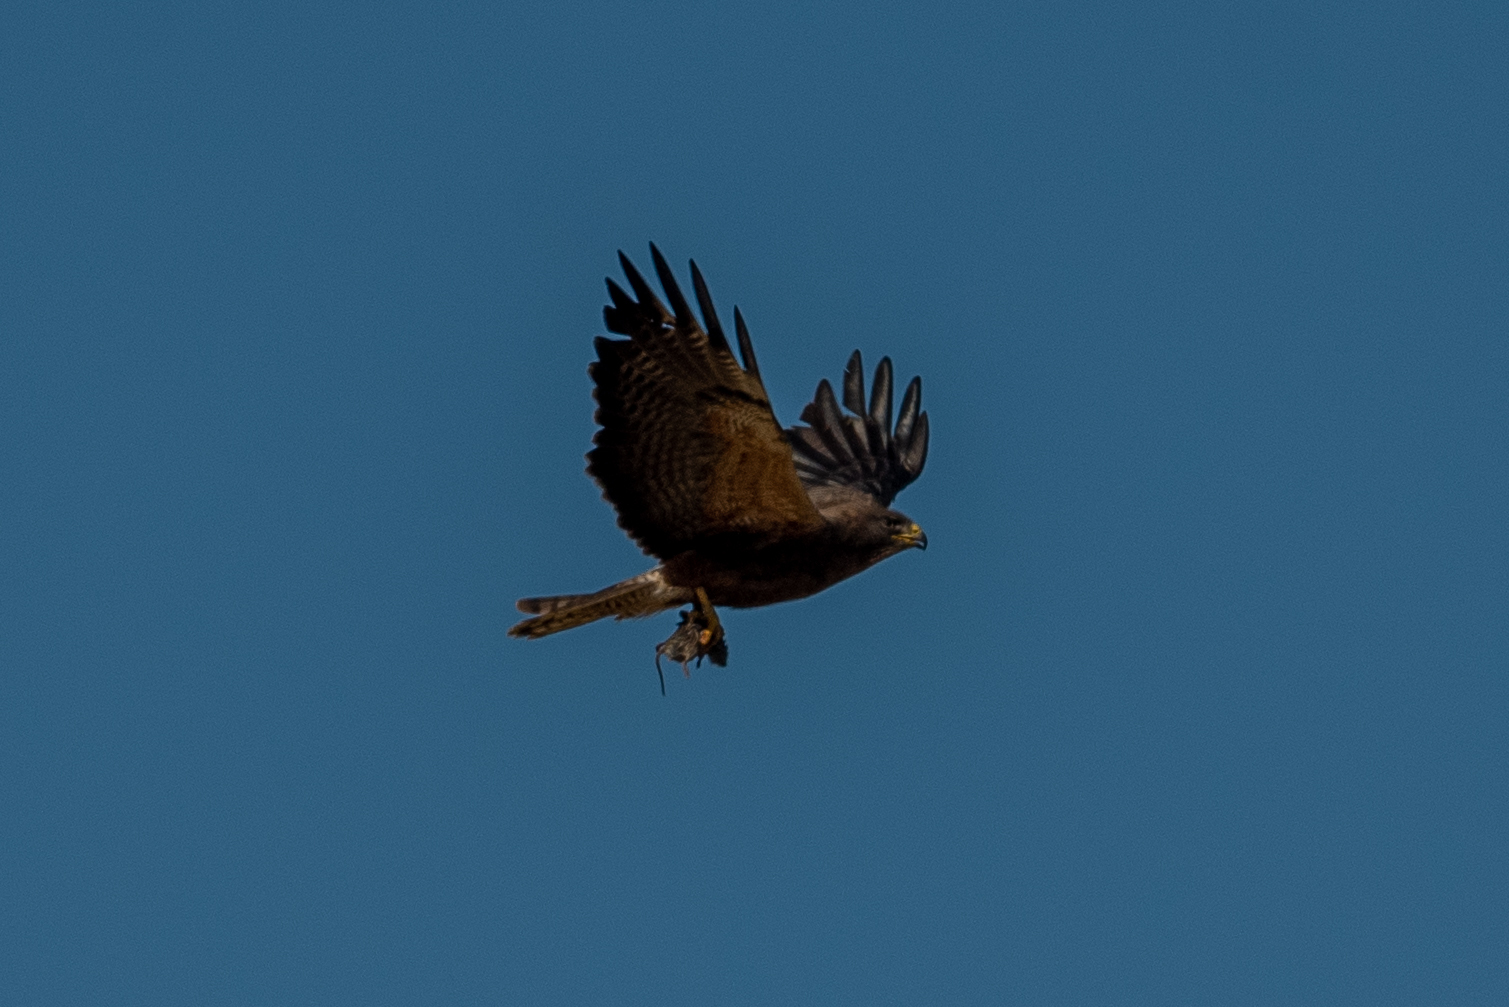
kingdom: Animalia
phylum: Chordata
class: Aves
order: Accipitriformes
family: Accipitridae
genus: Buteo
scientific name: Buteo swainsoni
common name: Swainson's hawk
